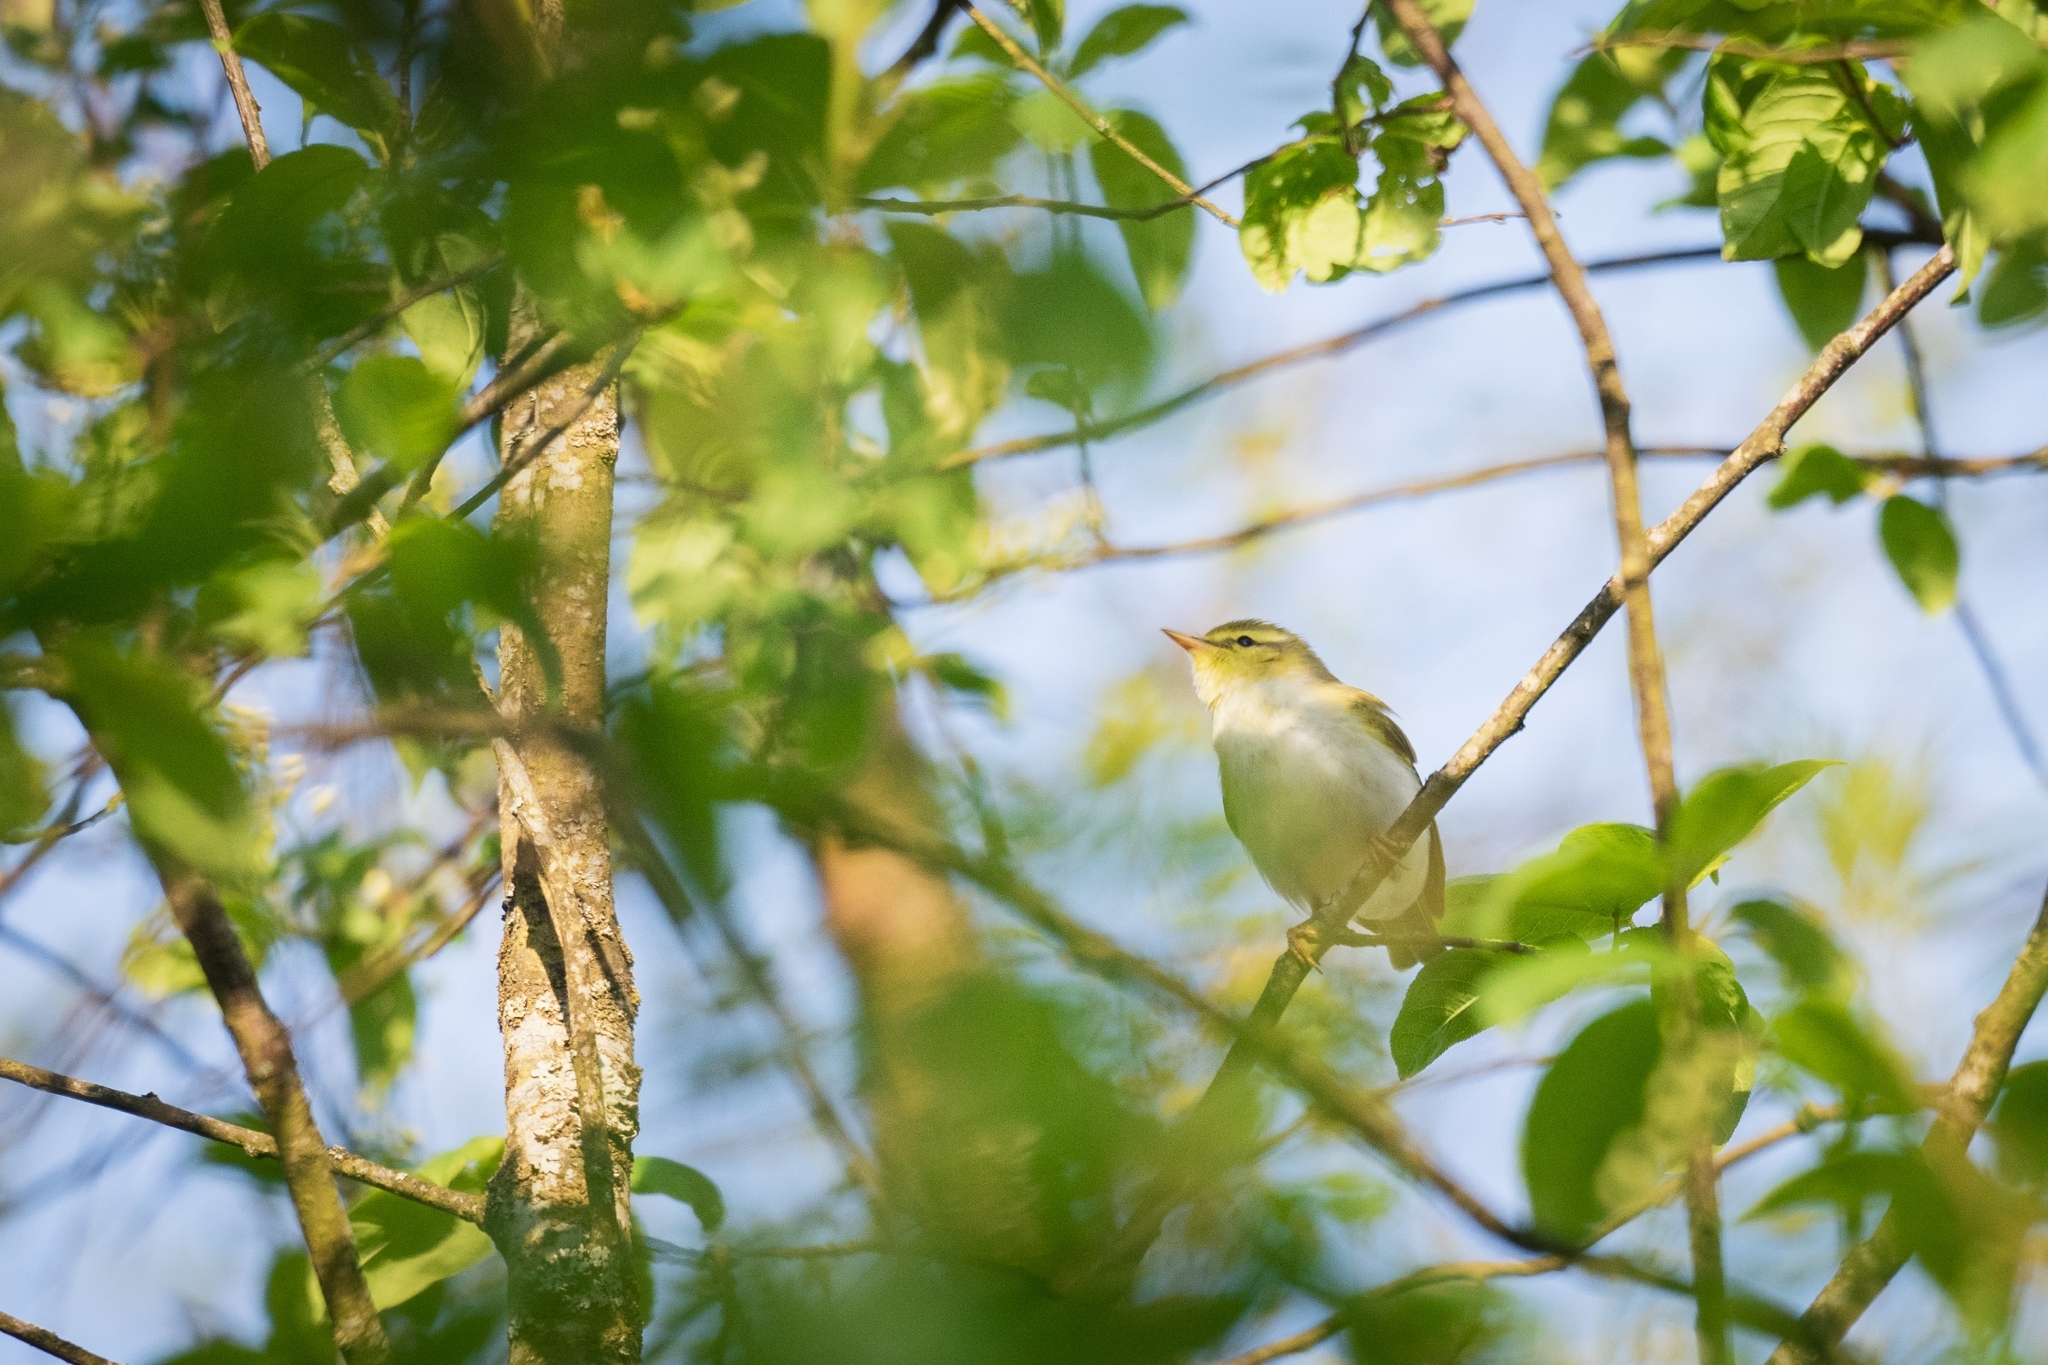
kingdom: Animalia
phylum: Chordata
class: Aves
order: Passeriformes
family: Phylloscopidae
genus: Phylloscopus
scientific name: Phylloscopus sibillatrix
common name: Wood warbler
